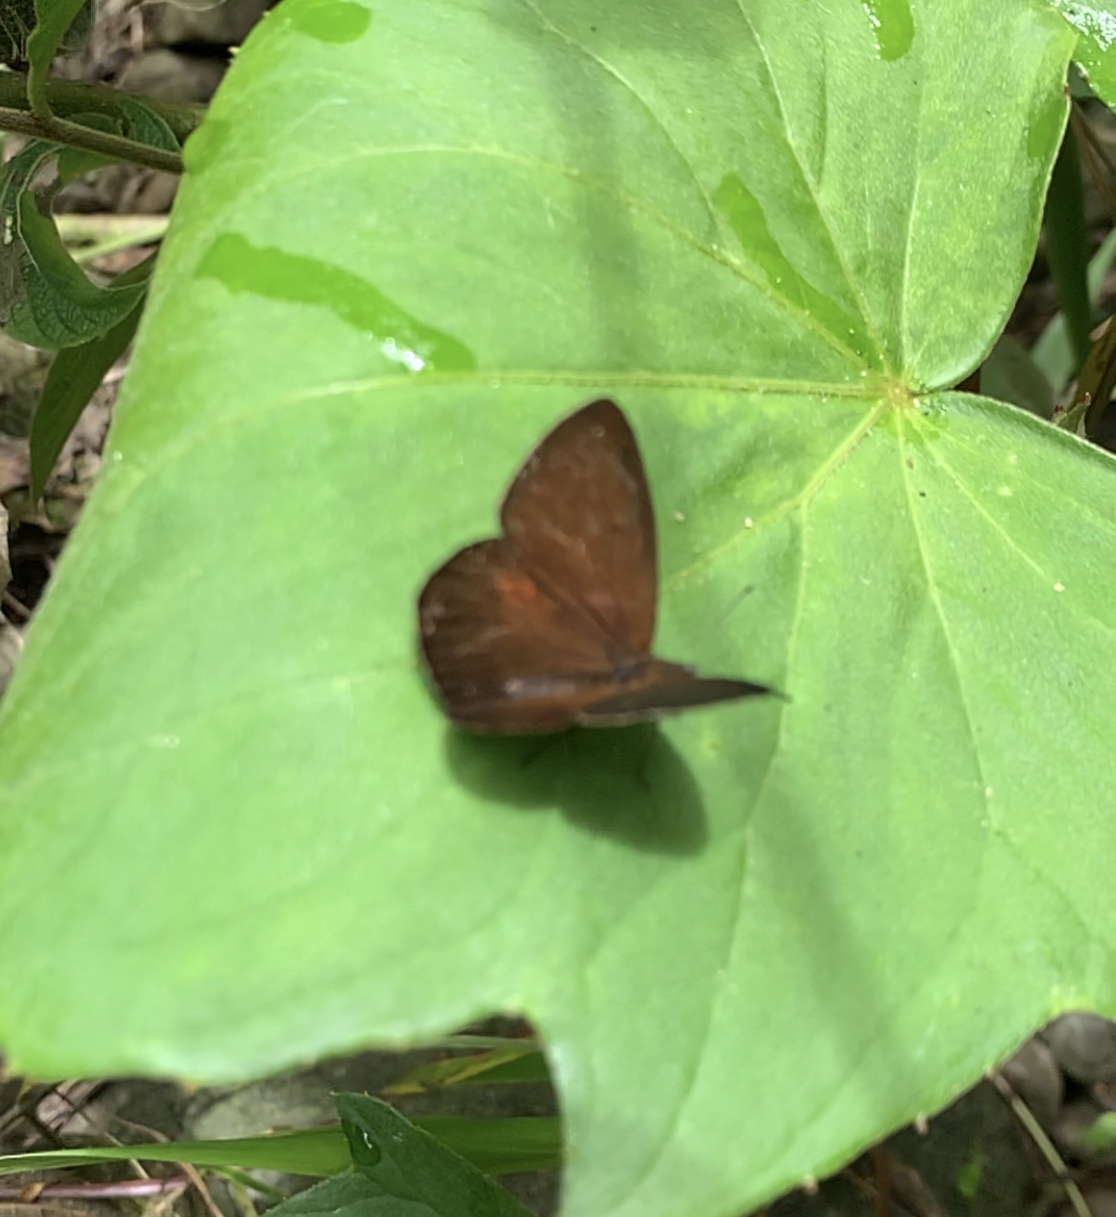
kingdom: Animalia
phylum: Arthropoda
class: Insecta
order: Lepidoptera
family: Nymphalidae
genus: Lymanopoda
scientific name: Lymanopoda labda
